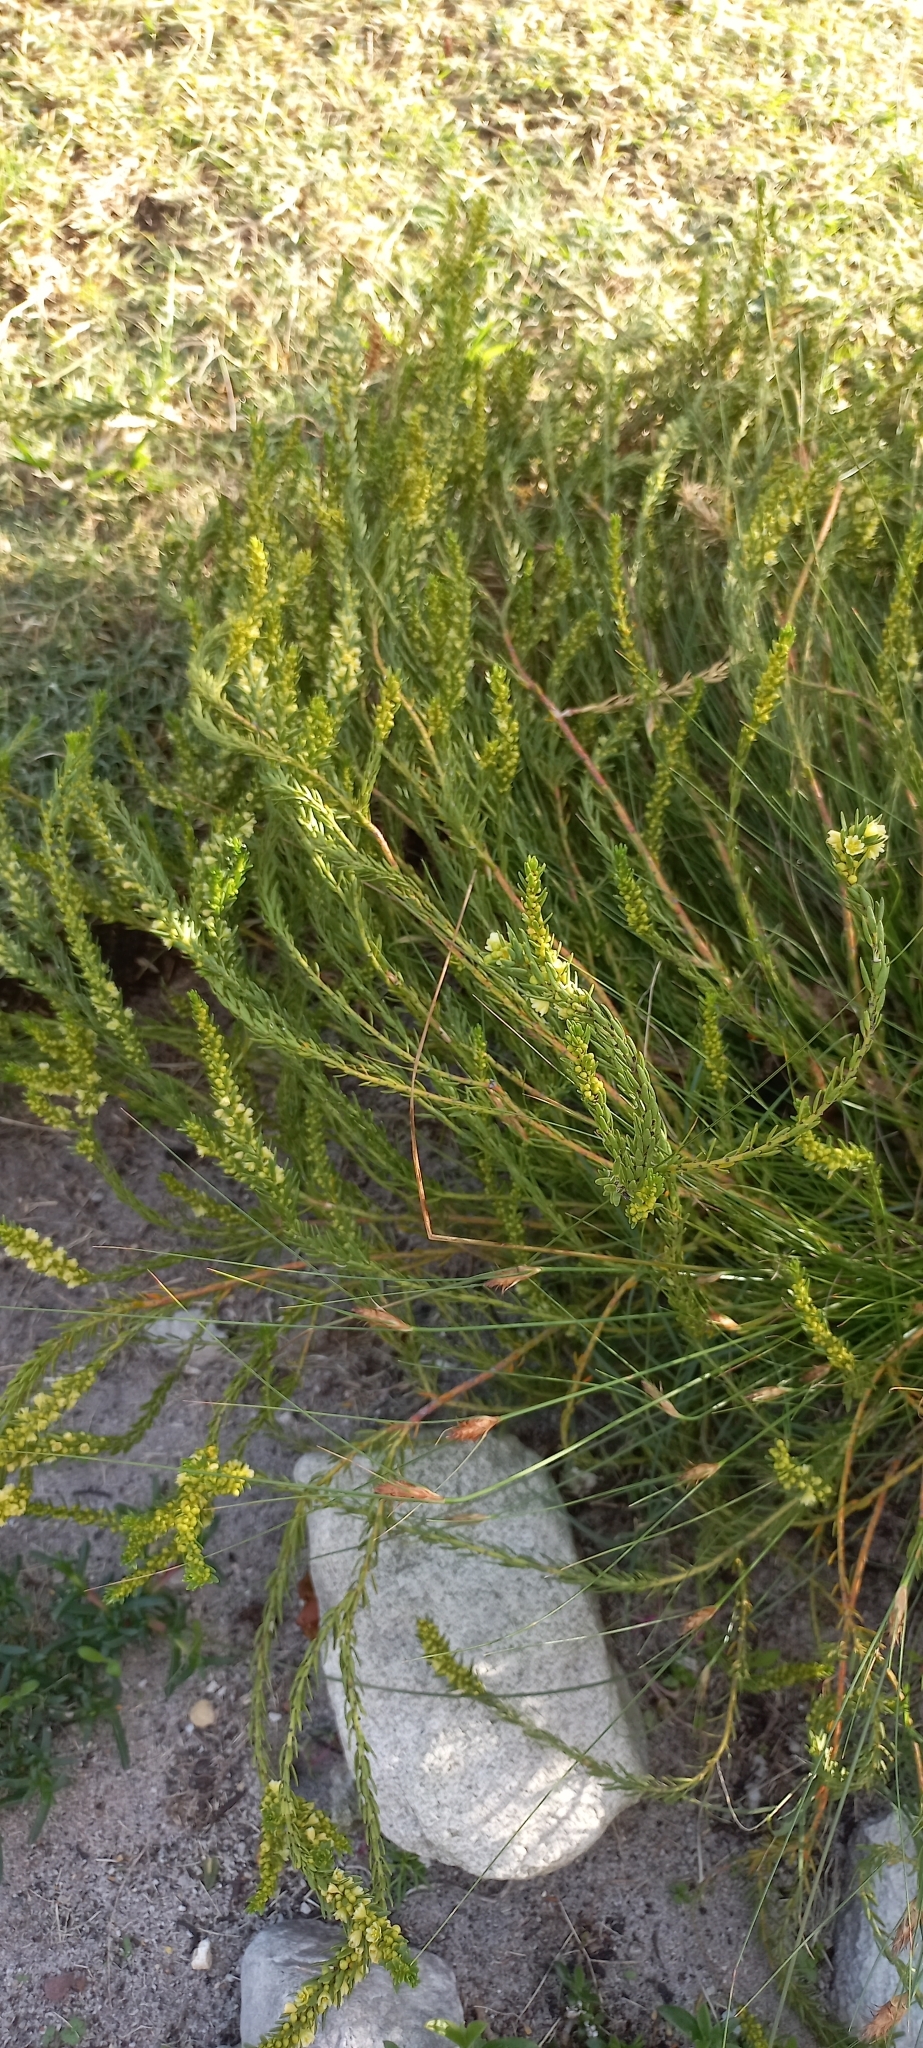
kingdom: Plantae
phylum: Tracheophyta
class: Magnoliopsida
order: Malpighiales
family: Peraceae
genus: Clutia
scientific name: Clutia ericoides
